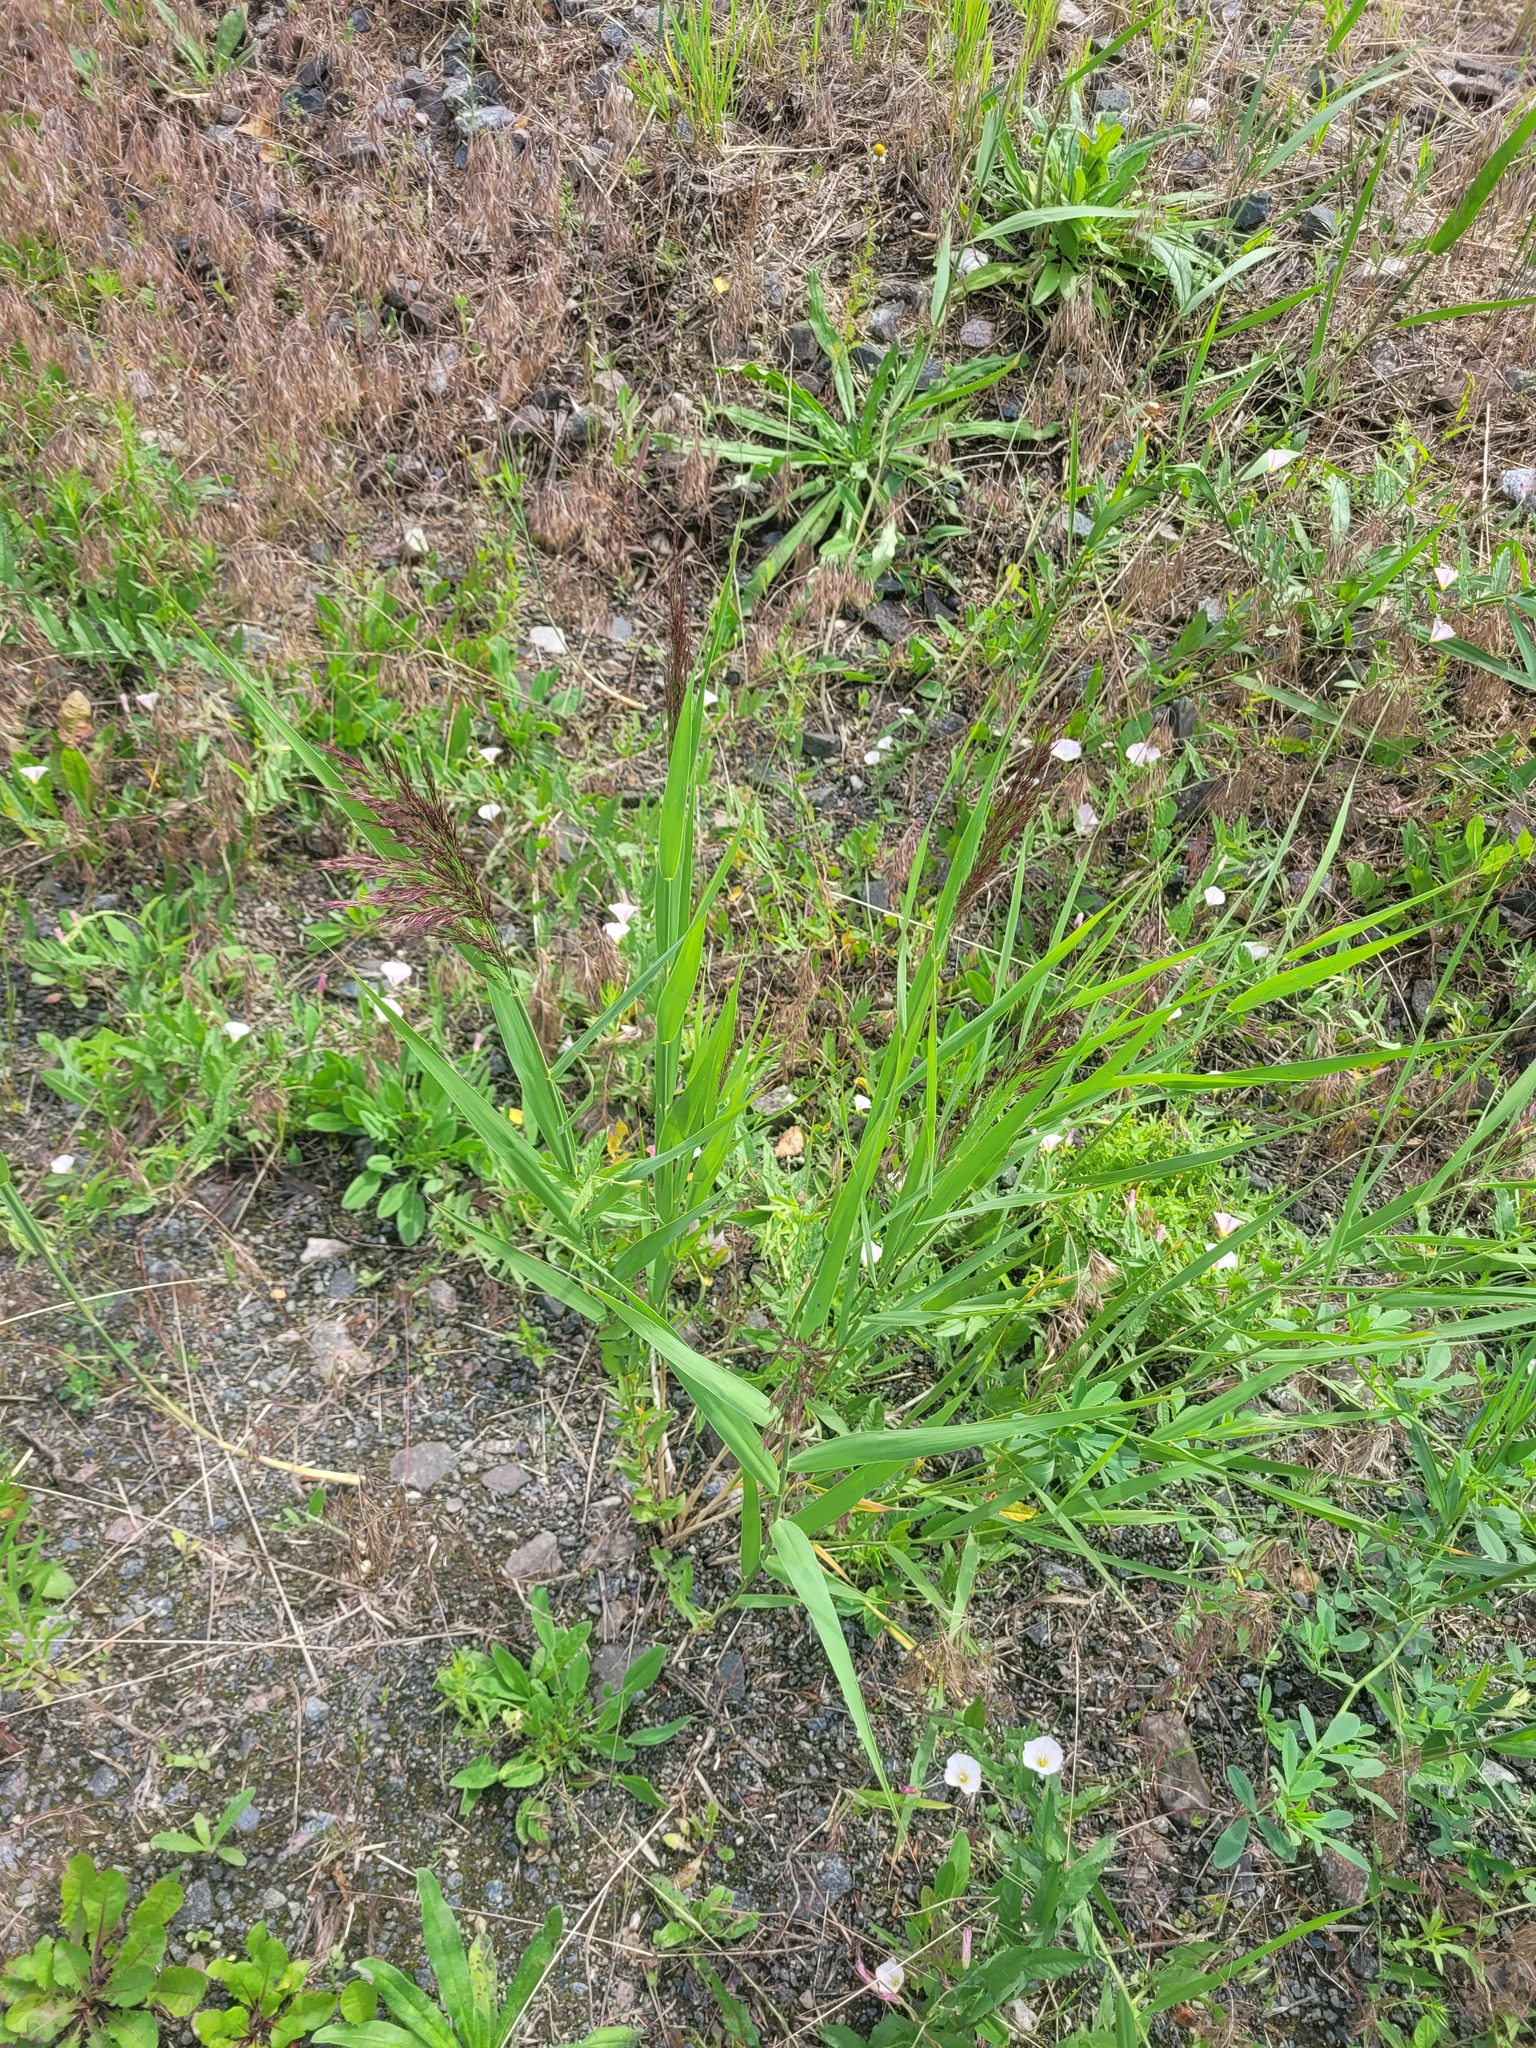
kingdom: Plantae
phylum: Tracheophyta
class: Liliopsida
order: Poales
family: Poaceae
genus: Phragmites
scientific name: Phragmites australis
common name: Common reed
